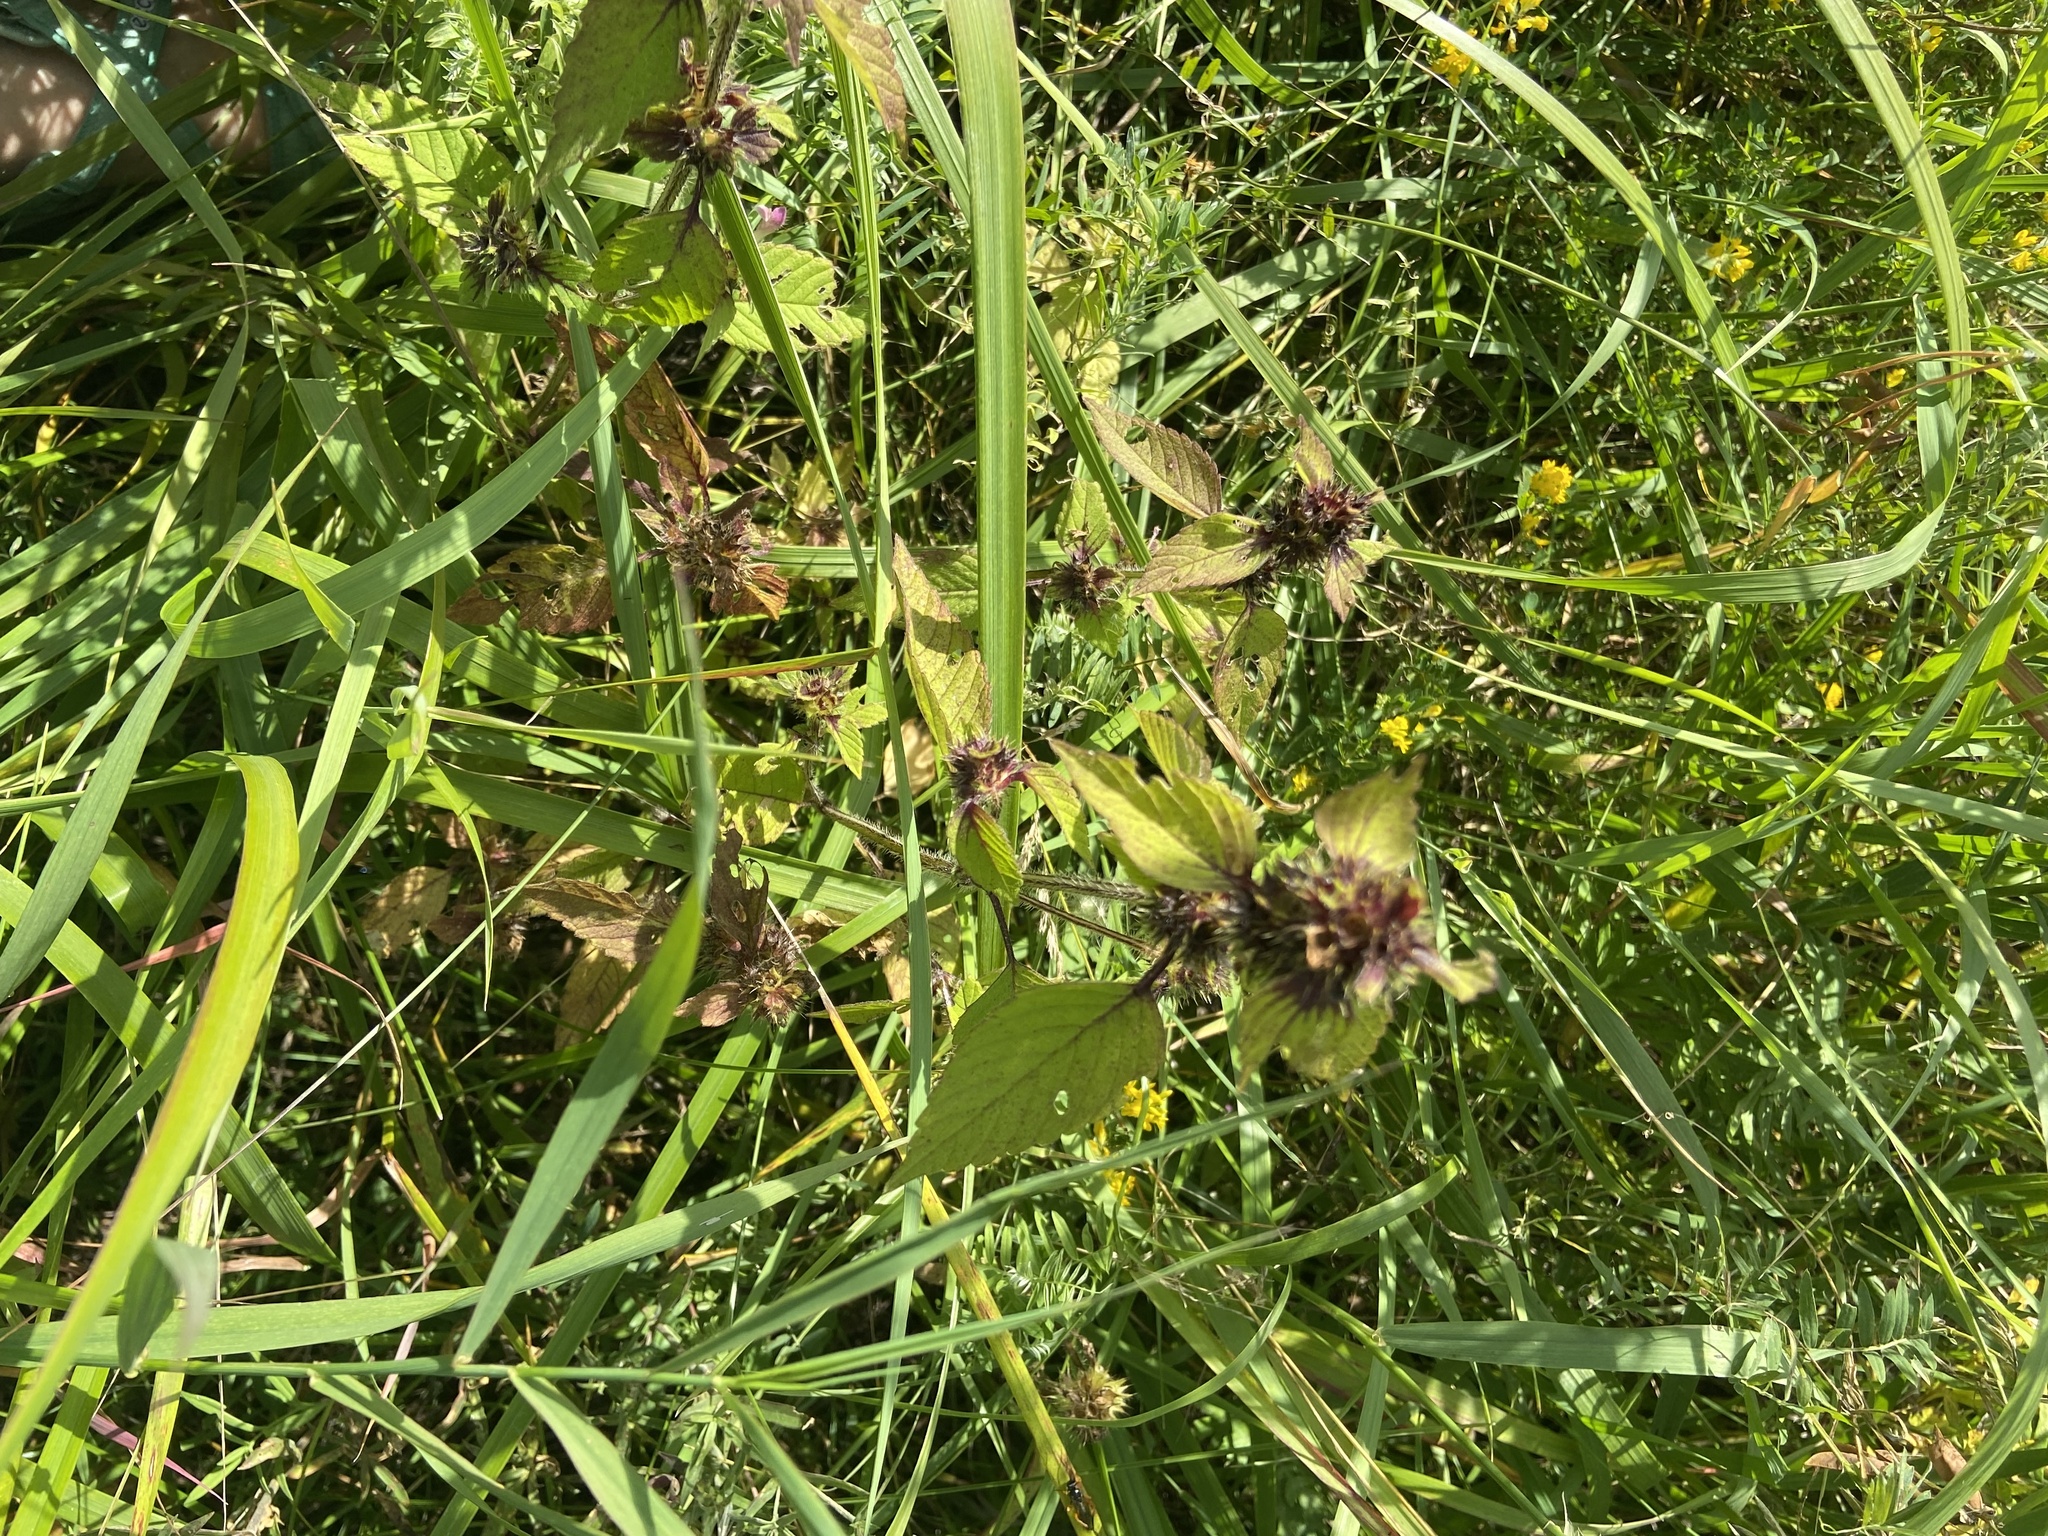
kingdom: Plantae
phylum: Tracheophyta
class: Magnoliopsida
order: Lamiales
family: Lamiaceae
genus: Galeopsis
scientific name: Galeopsis bifida
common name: Bifid hemp-nettle
